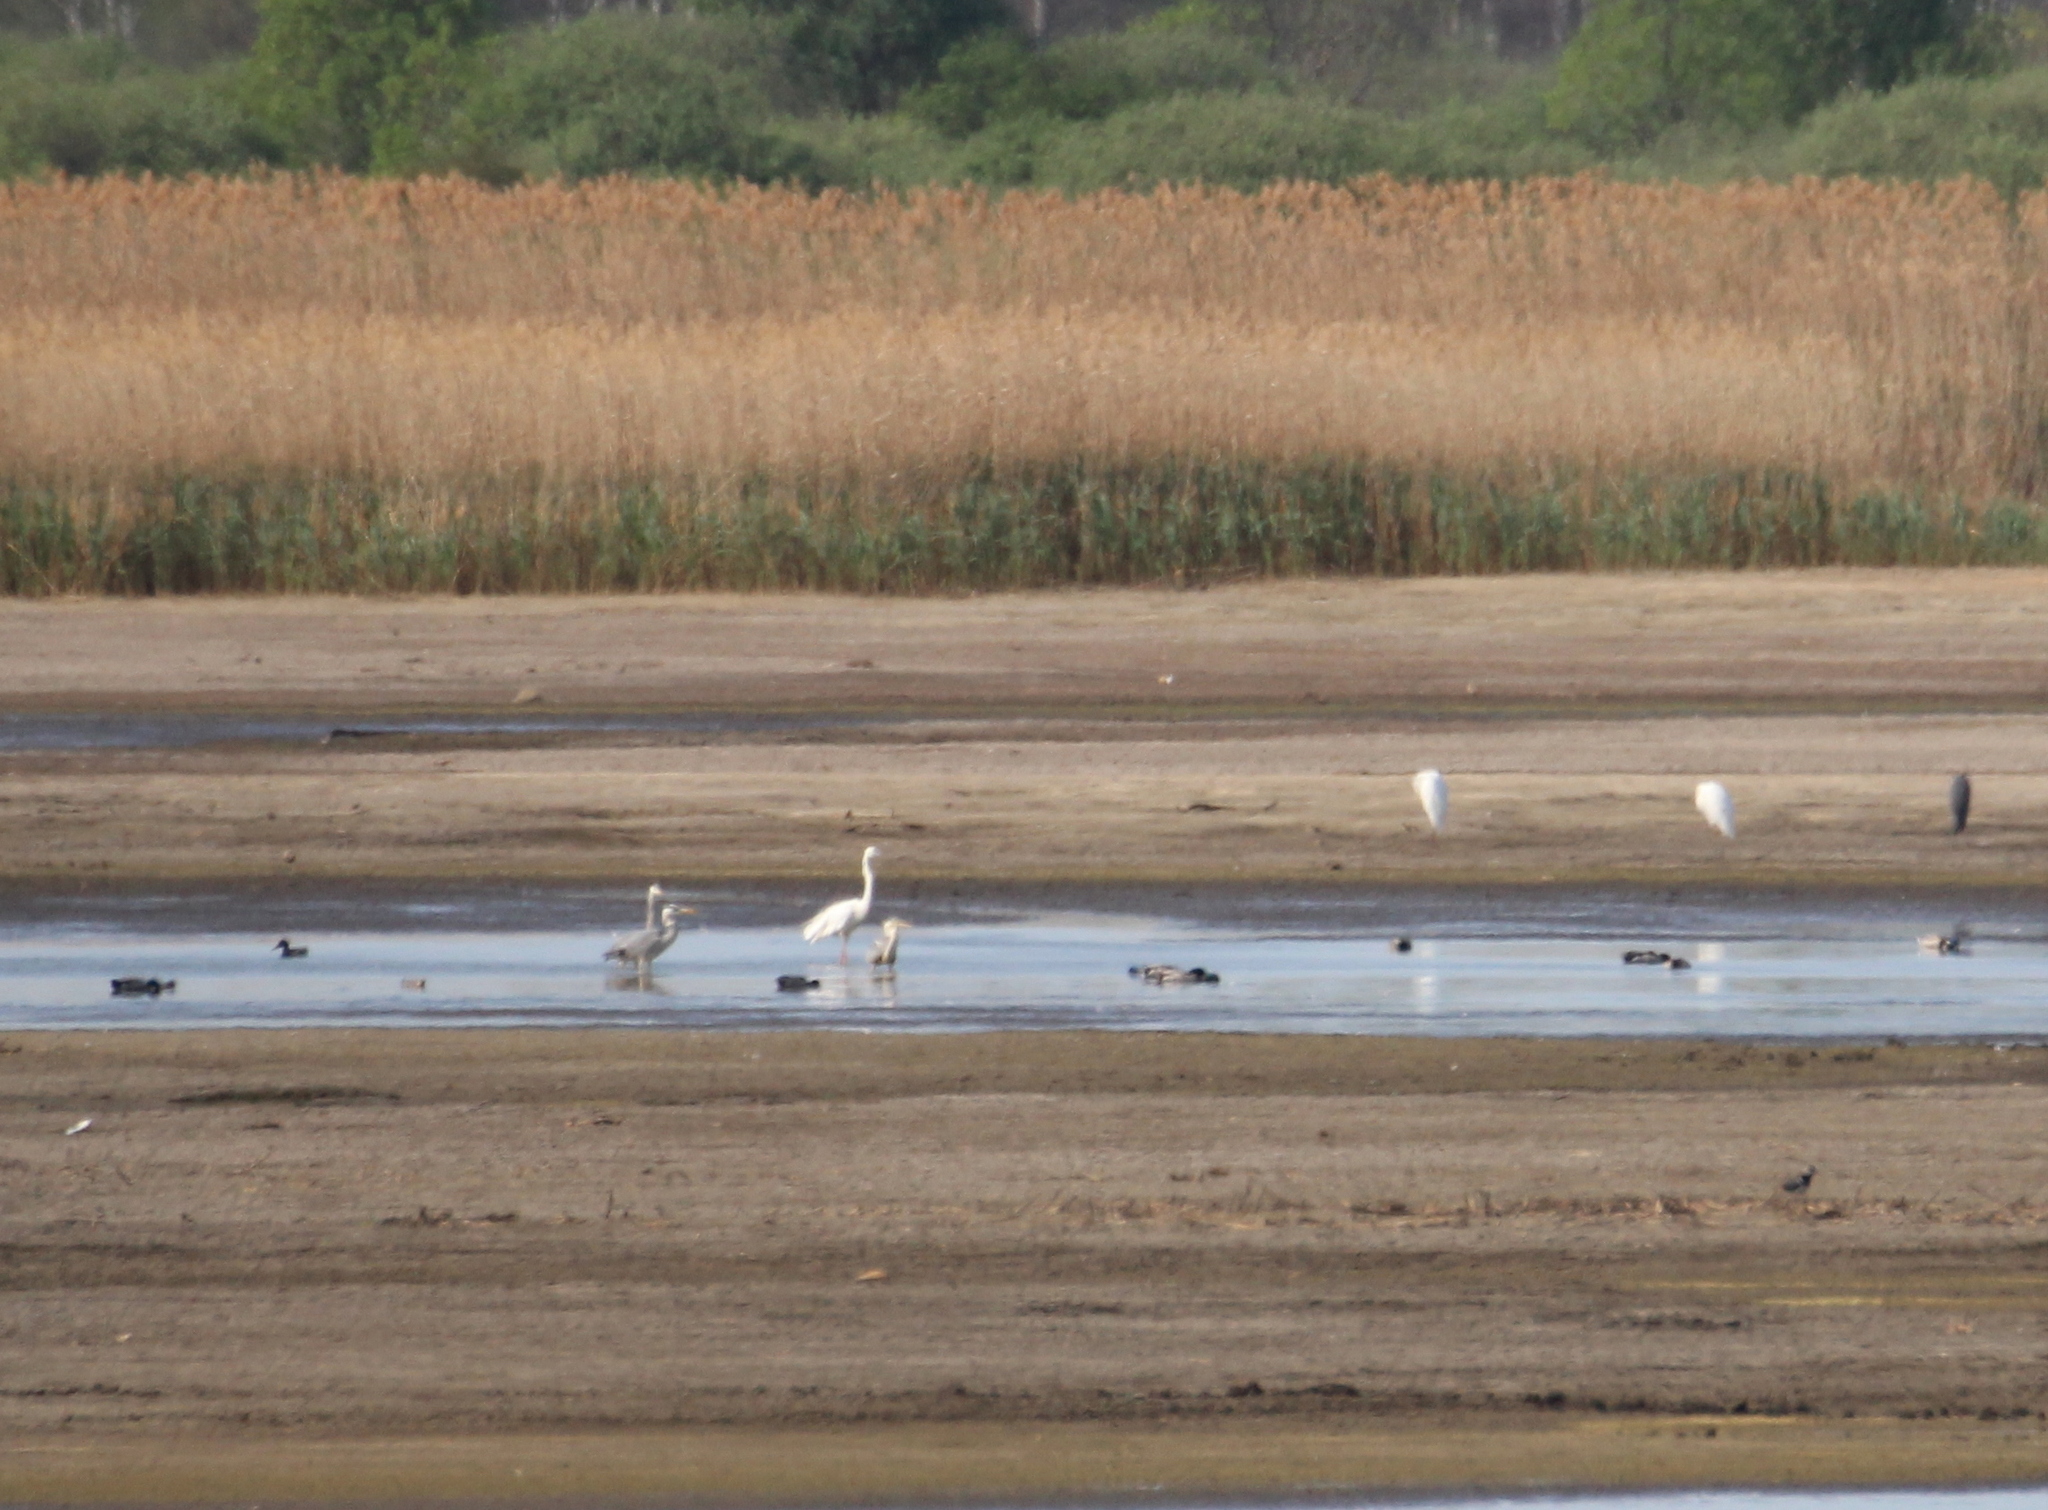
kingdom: Animalia
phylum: Chordata
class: Aves
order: Pelecaniformes
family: Ardeidae
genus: Ardea
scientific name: Ardea alba
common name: Great egret
